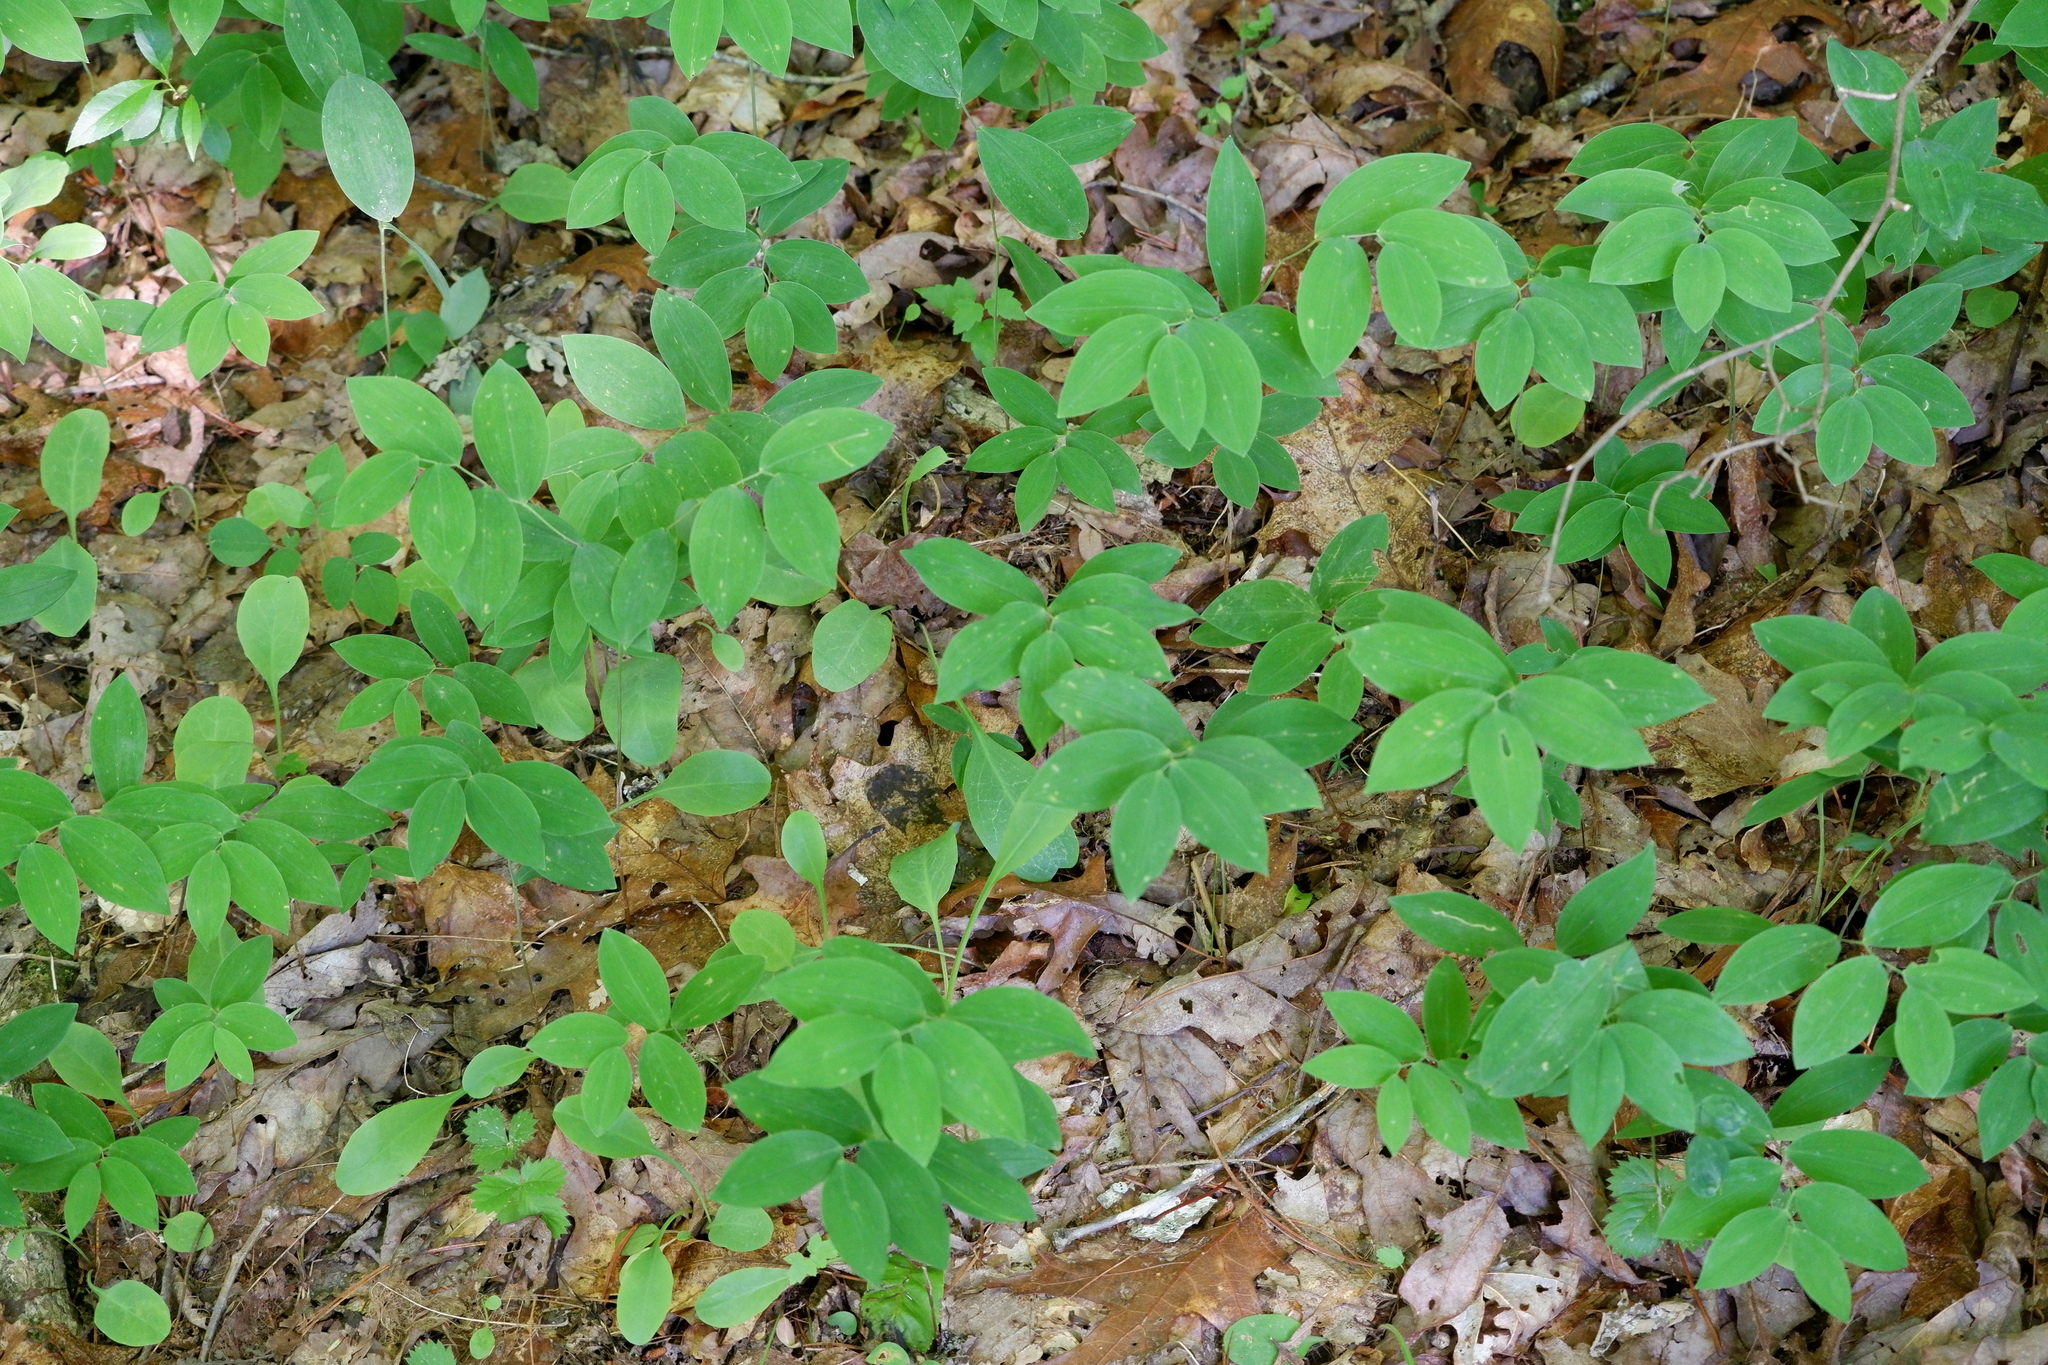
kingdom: Plantae
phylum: Tracheophyta
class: Liliopsida
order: Liliales
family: Colchicaceae
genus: Uvularia
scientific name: Uvularia sessilifolia
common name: Straw-lily
